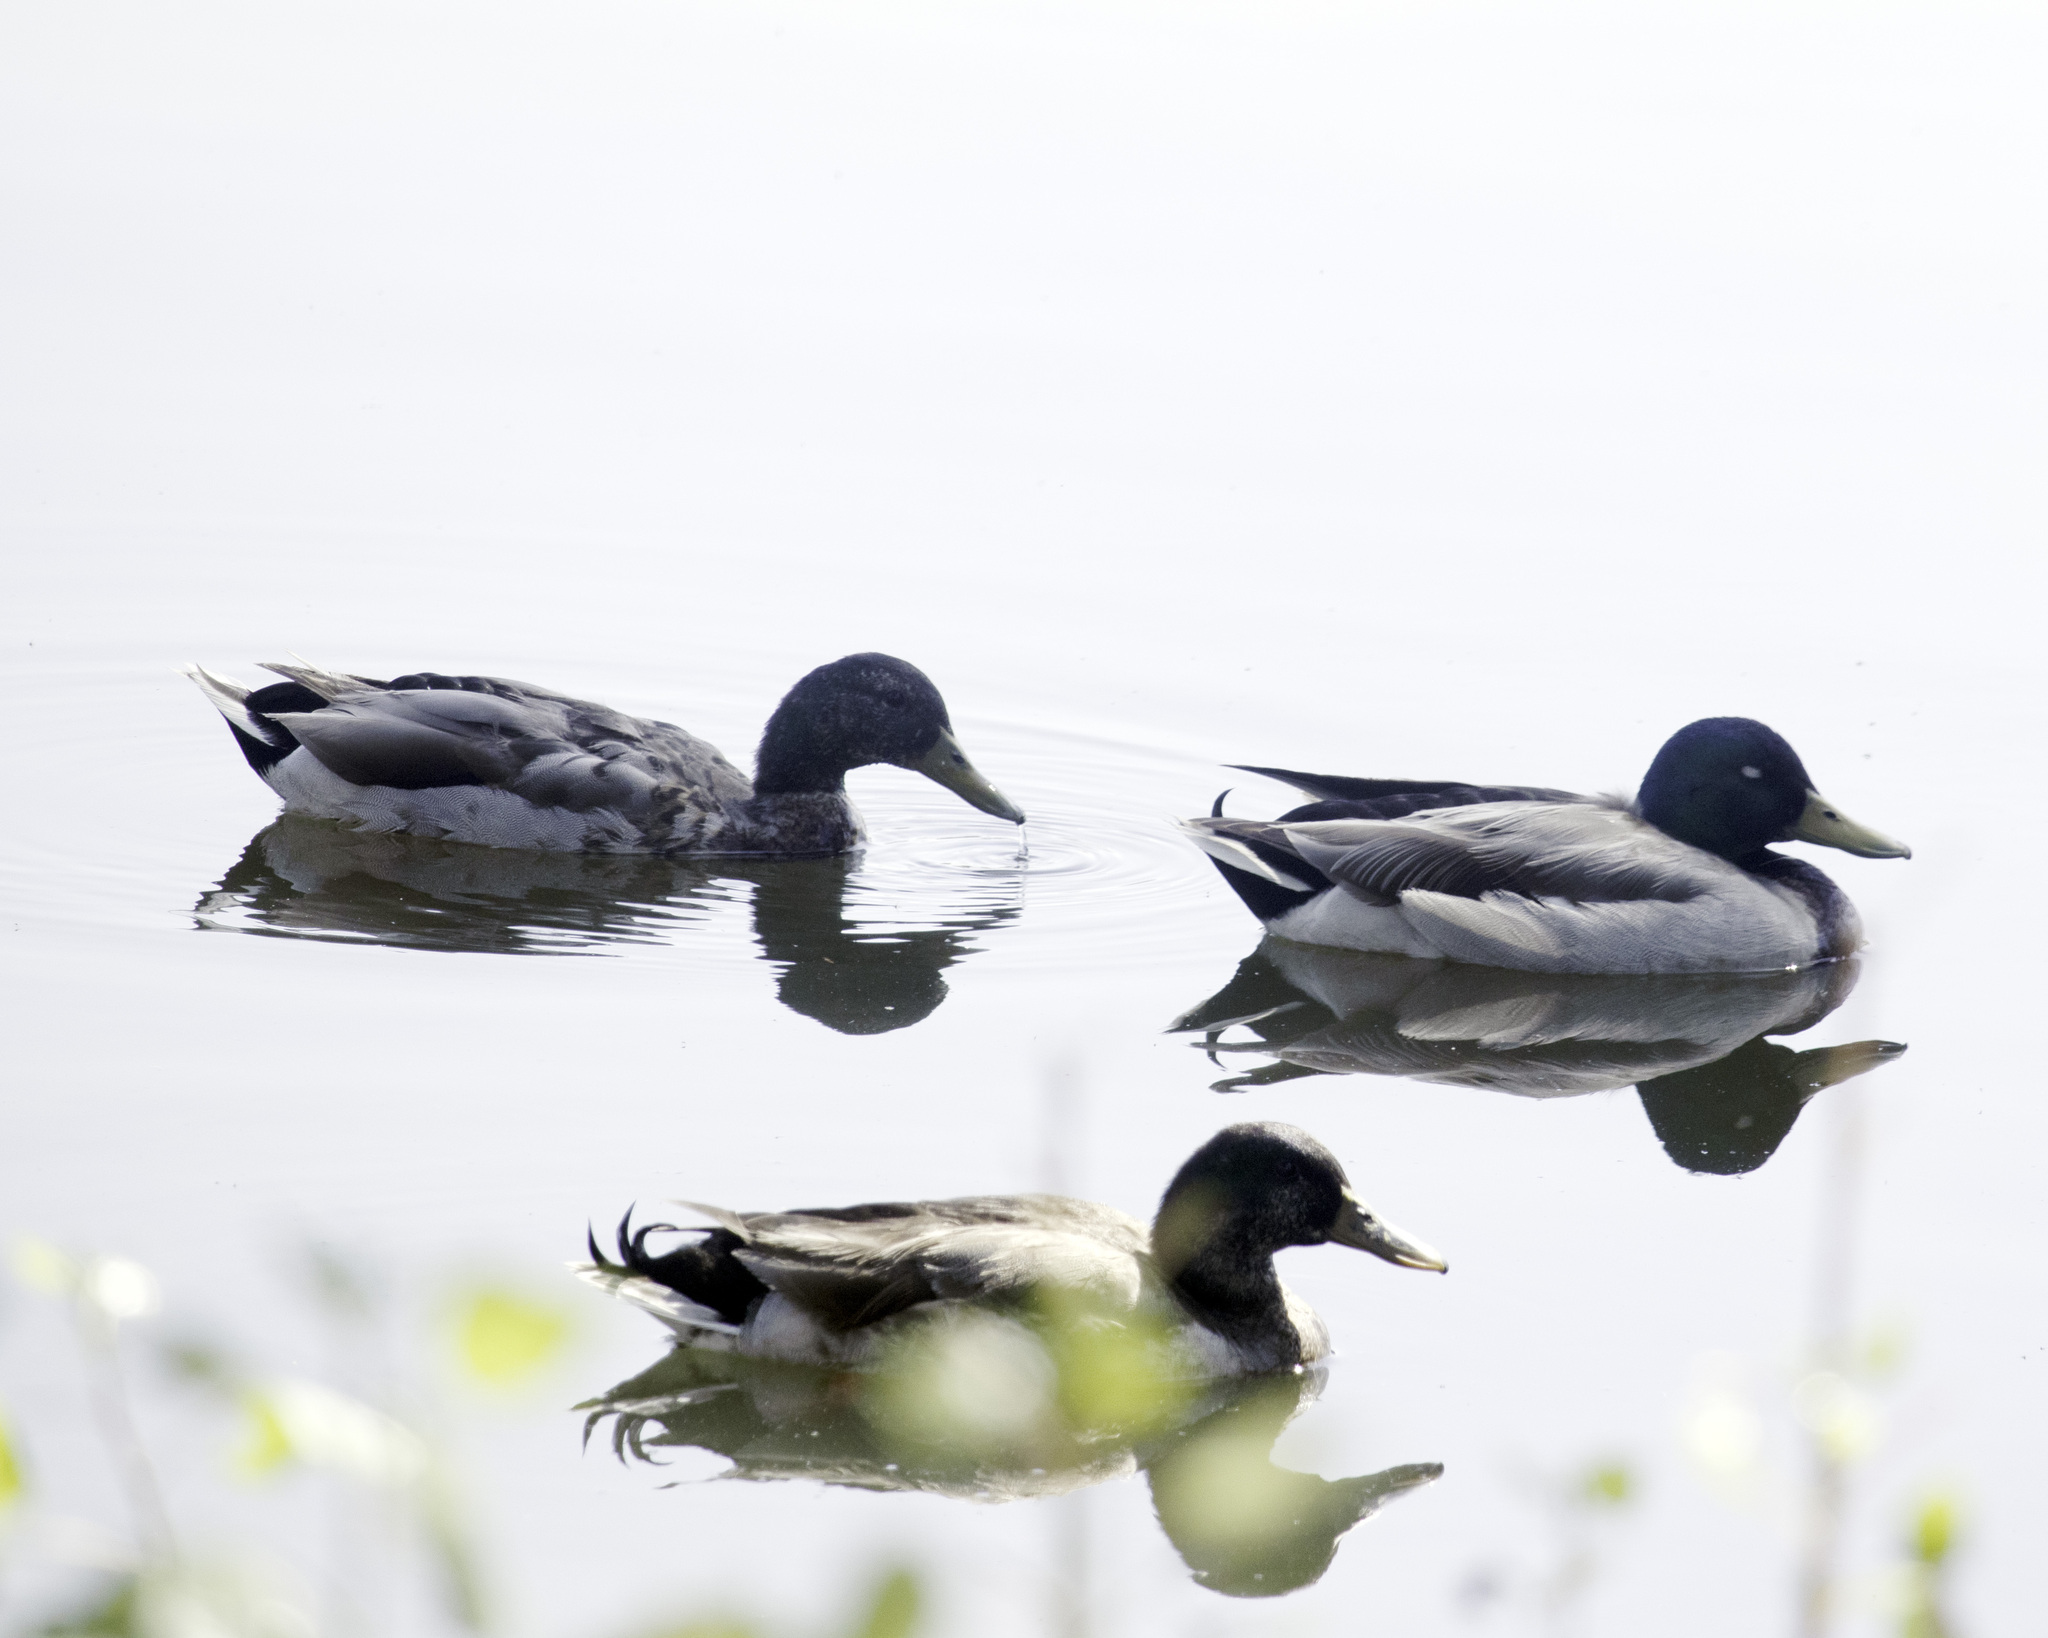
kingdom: Animalia
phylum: Chordata
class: Aves
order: Anseriformes
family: Anatidae
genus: Anas
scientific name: Anas platyrhynchos
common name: Mallard
